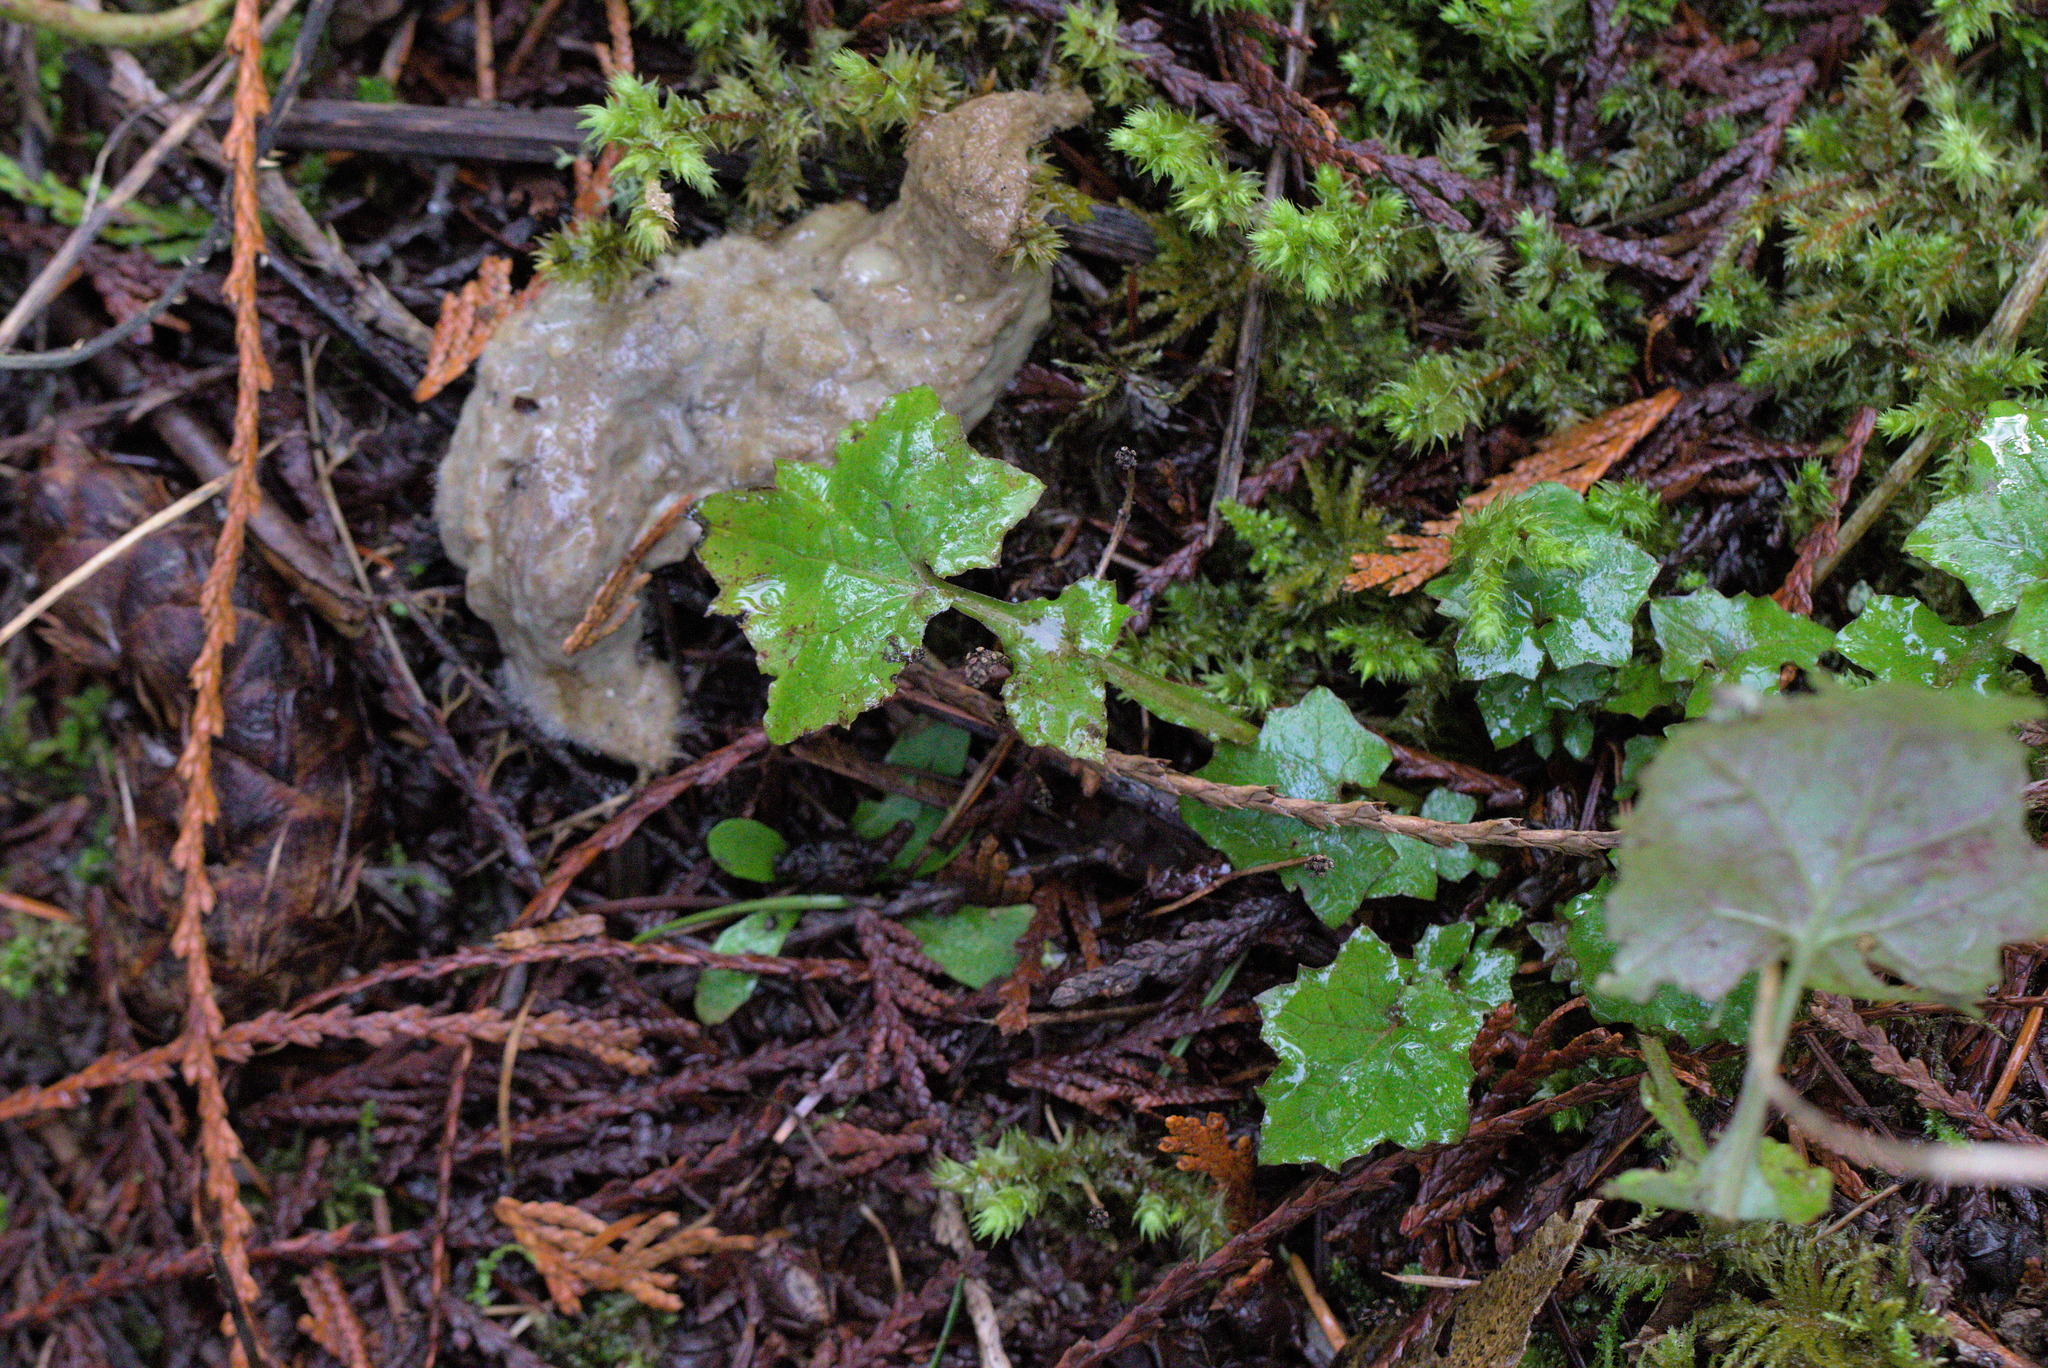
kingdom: Plantae
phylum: Tracheophyta
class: Magnoliopsida
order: Asterales
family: Asteraceae
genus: Mycelis
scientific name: Mycelis muralis
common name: Wall lettuce
